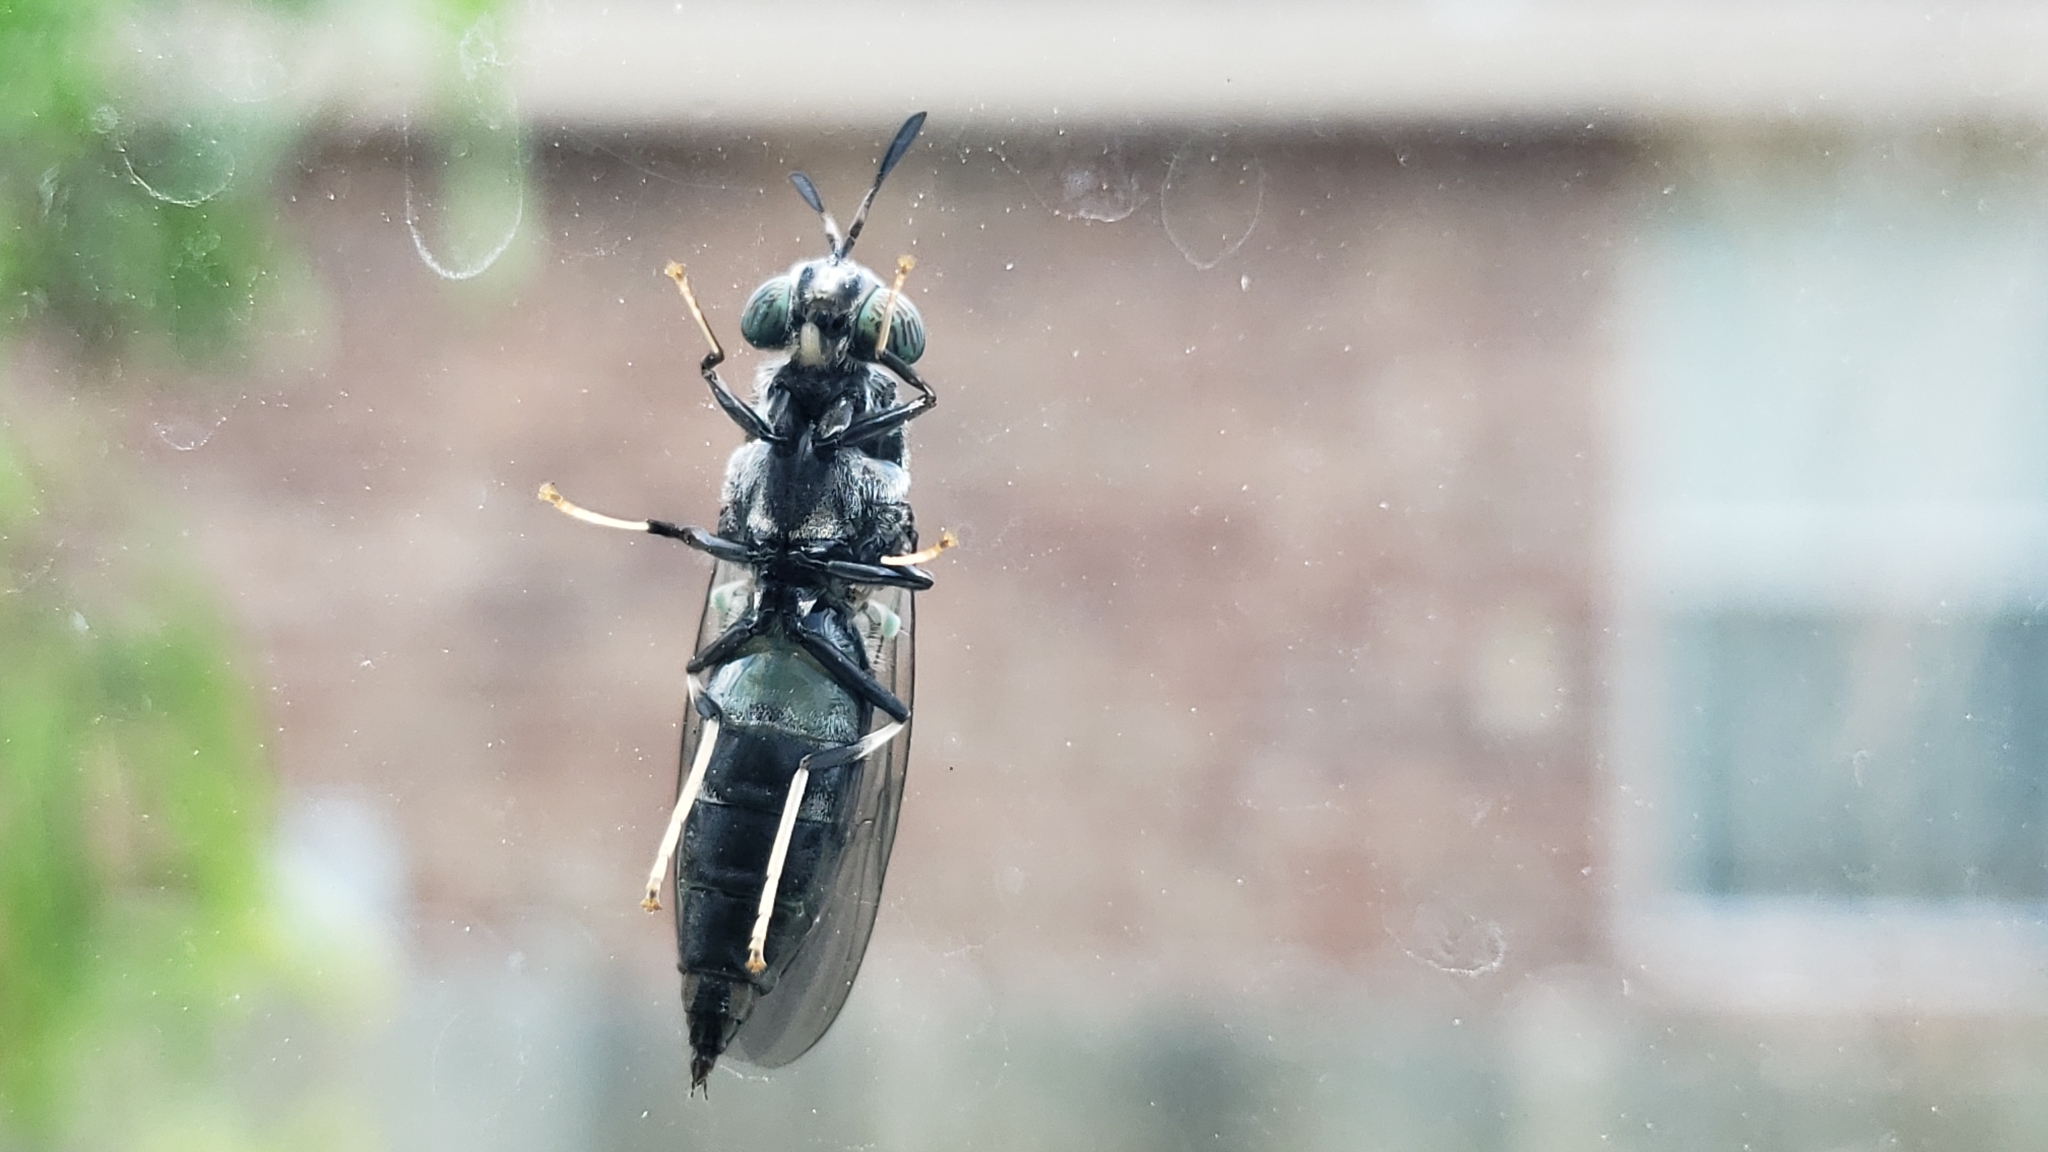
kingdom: Animalia
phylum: Arthropoda
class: Insecta
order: Diptera
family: Stratiomyidae
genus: Hermetia
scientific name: Hermetia illucens
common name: Black soldier fly
